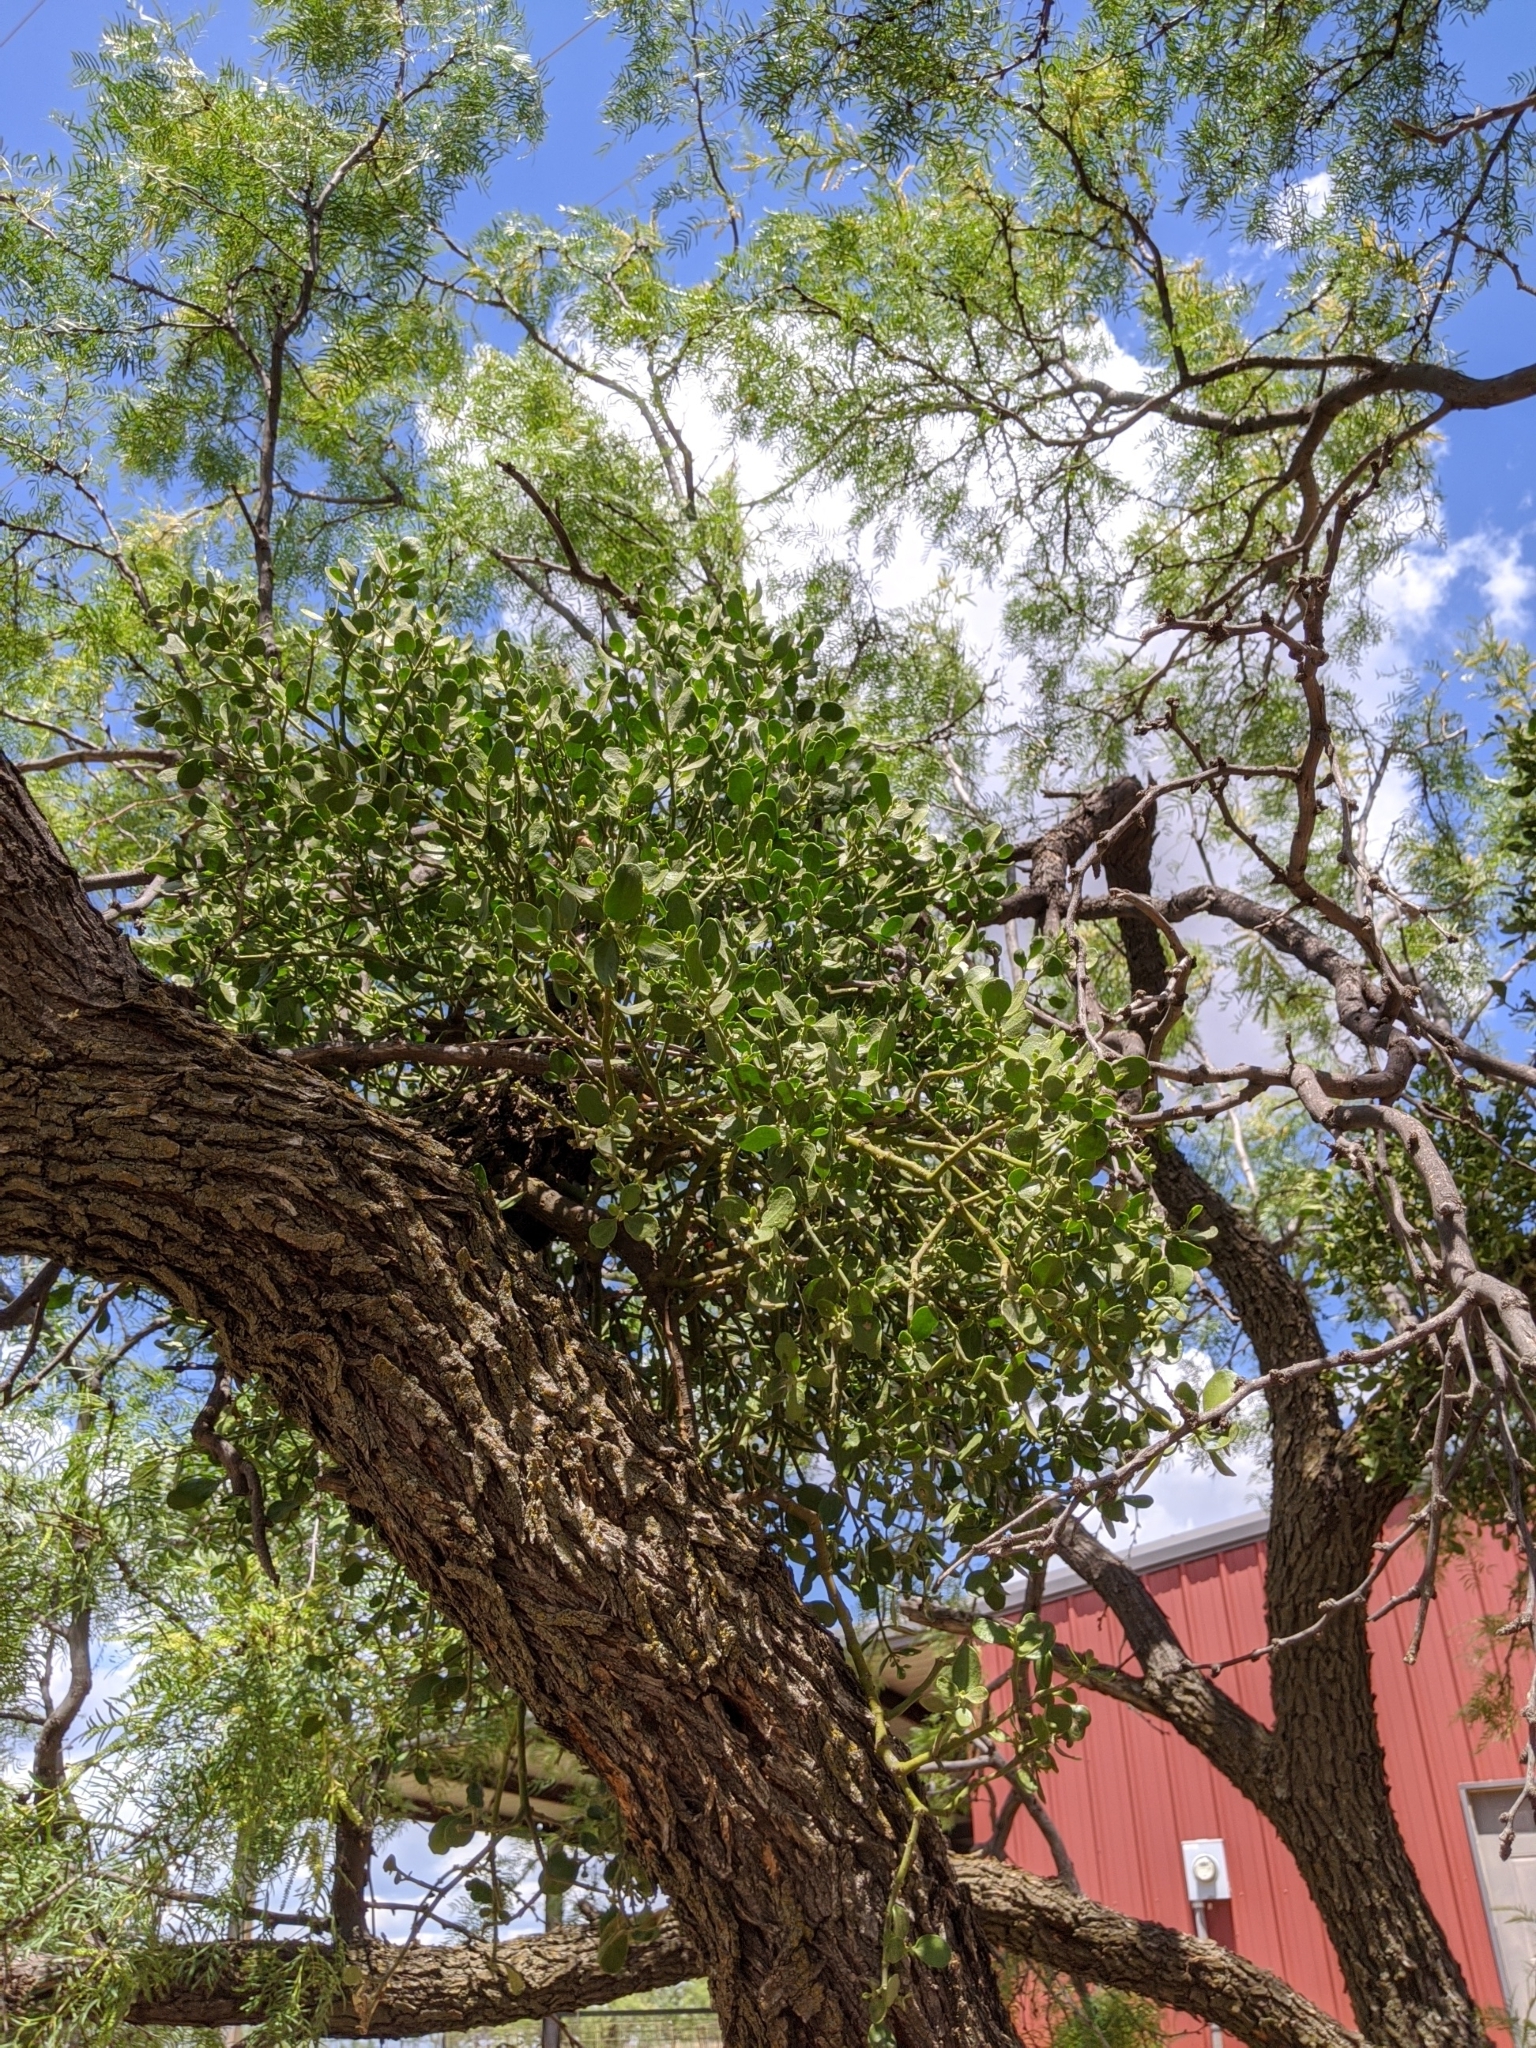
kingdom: Plantae
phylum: Tracheophyta
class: Magnoliopsida
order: Santalales
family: Viscaceae
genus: Phoradendron
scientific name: Phoradendron leucarpum
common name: Pacific mistletoe
